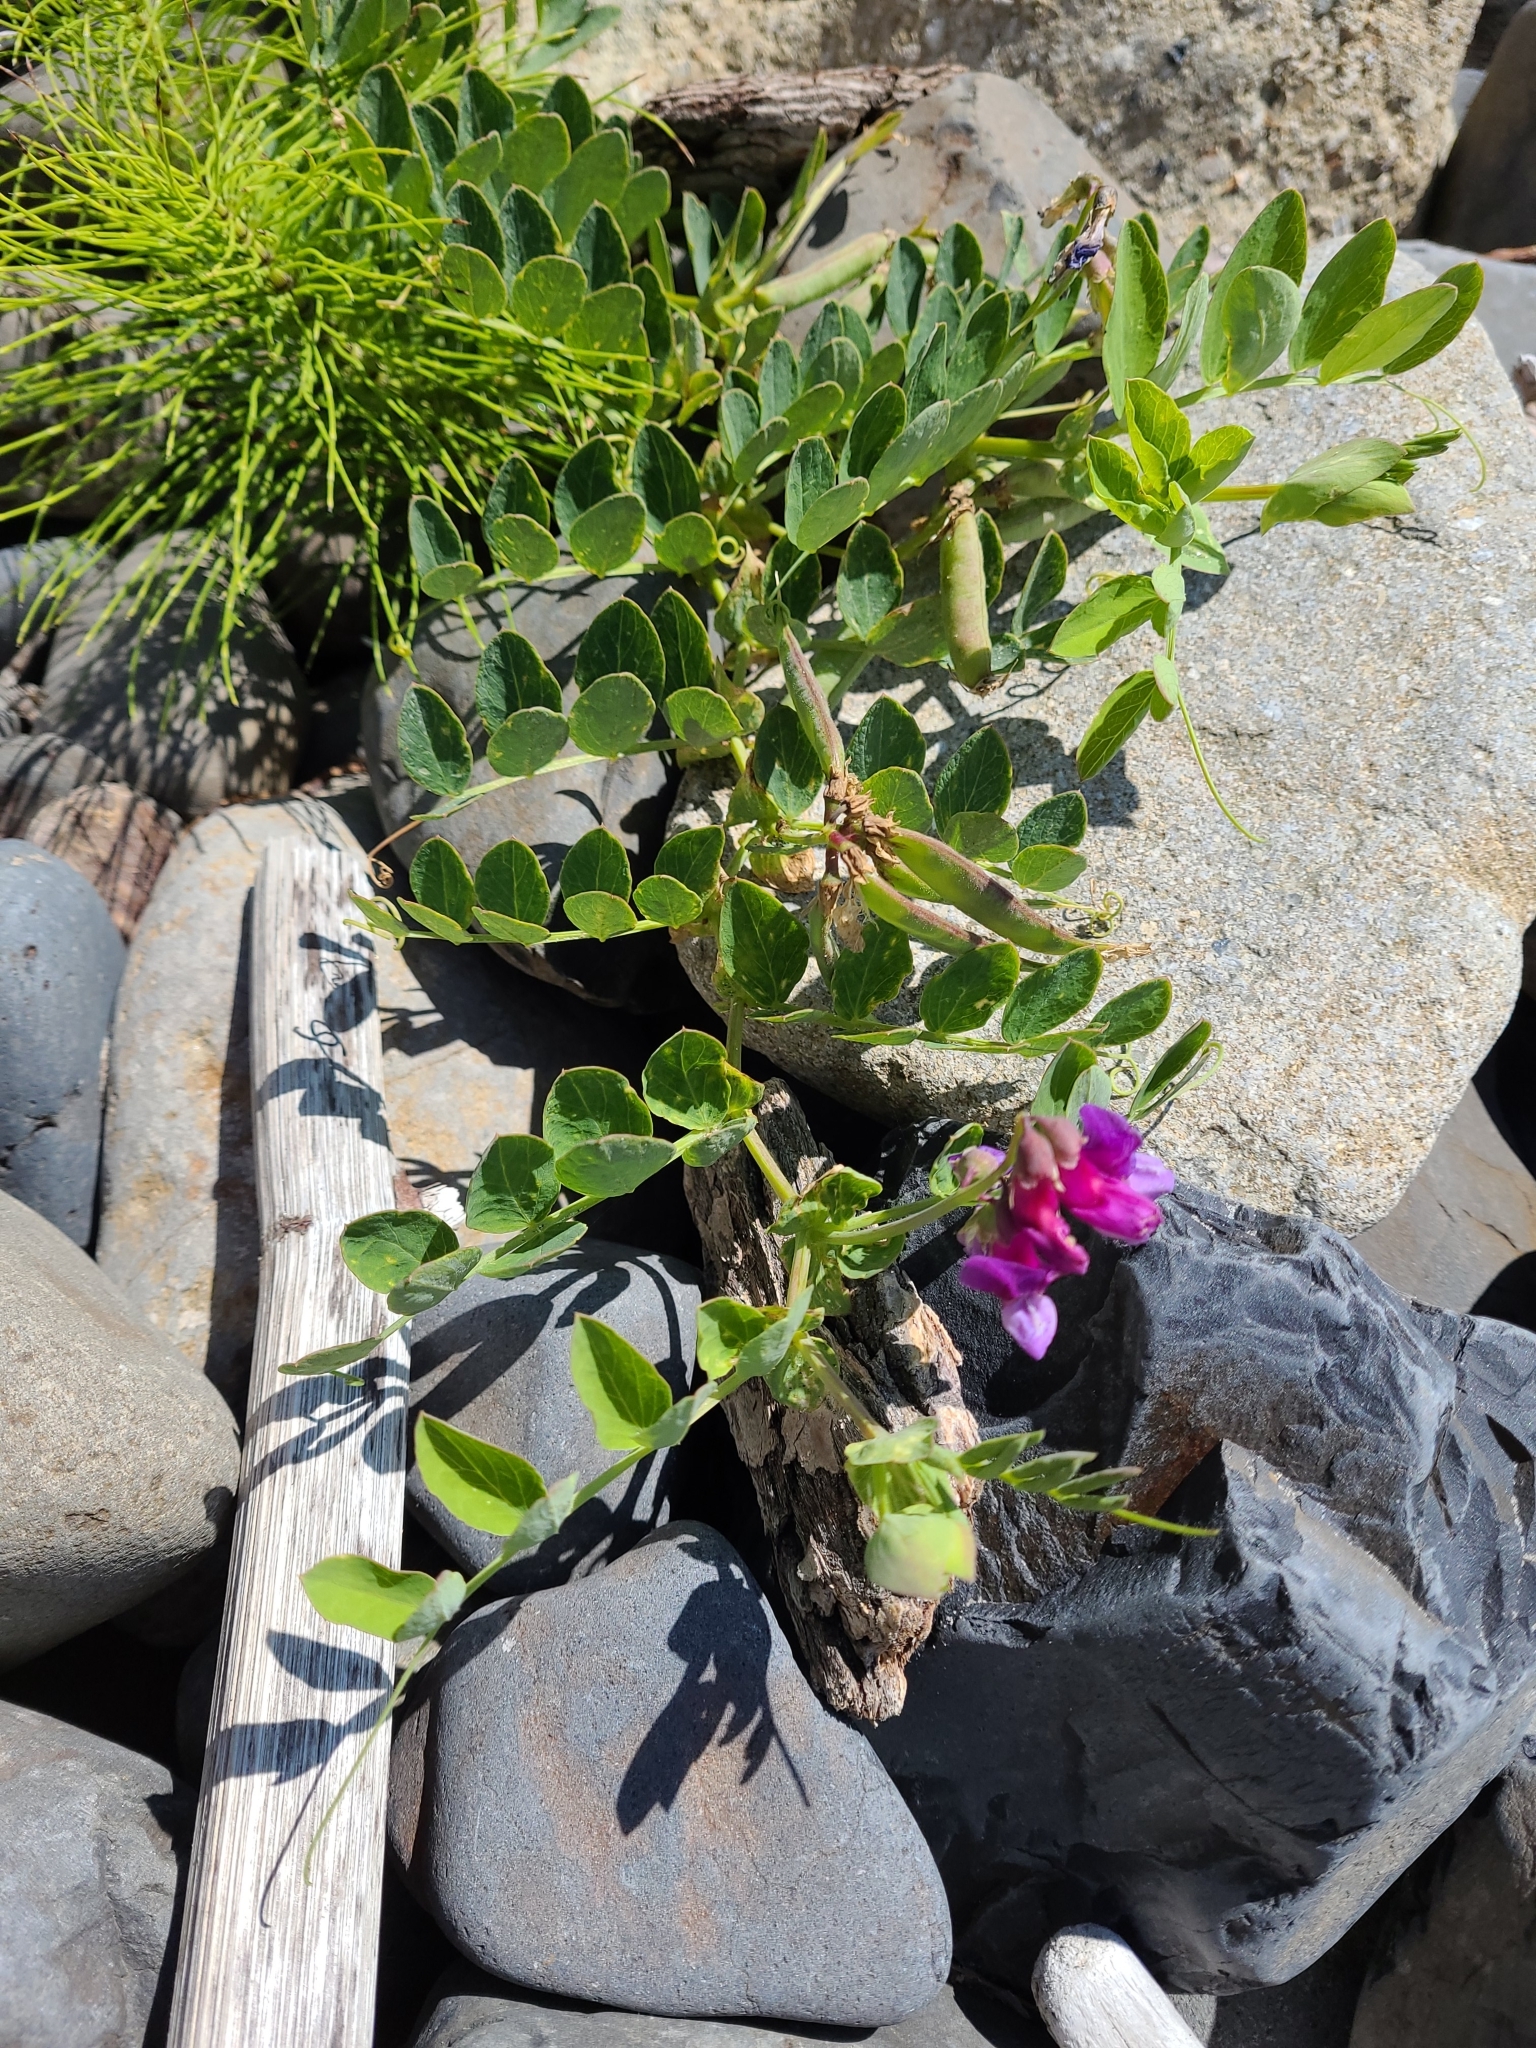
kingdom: Plantae
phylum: Tracheophyta
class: Magnoliopsida
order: Fabales
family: Fabaceae
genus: Lathyrus
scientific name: Lathyrus japonicus
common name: Sea pea
